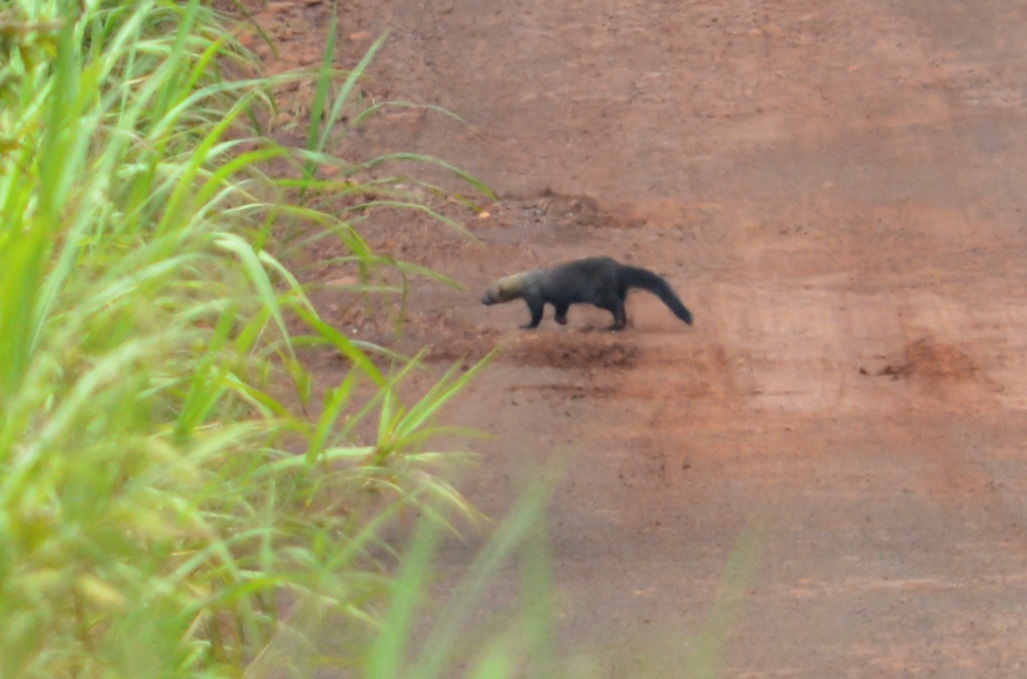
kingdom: Animalia
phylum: Chordata
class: Mammalia
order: Carnivora
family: Mustelidae
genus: Eira
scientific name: Eira barbara
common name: Tayra
